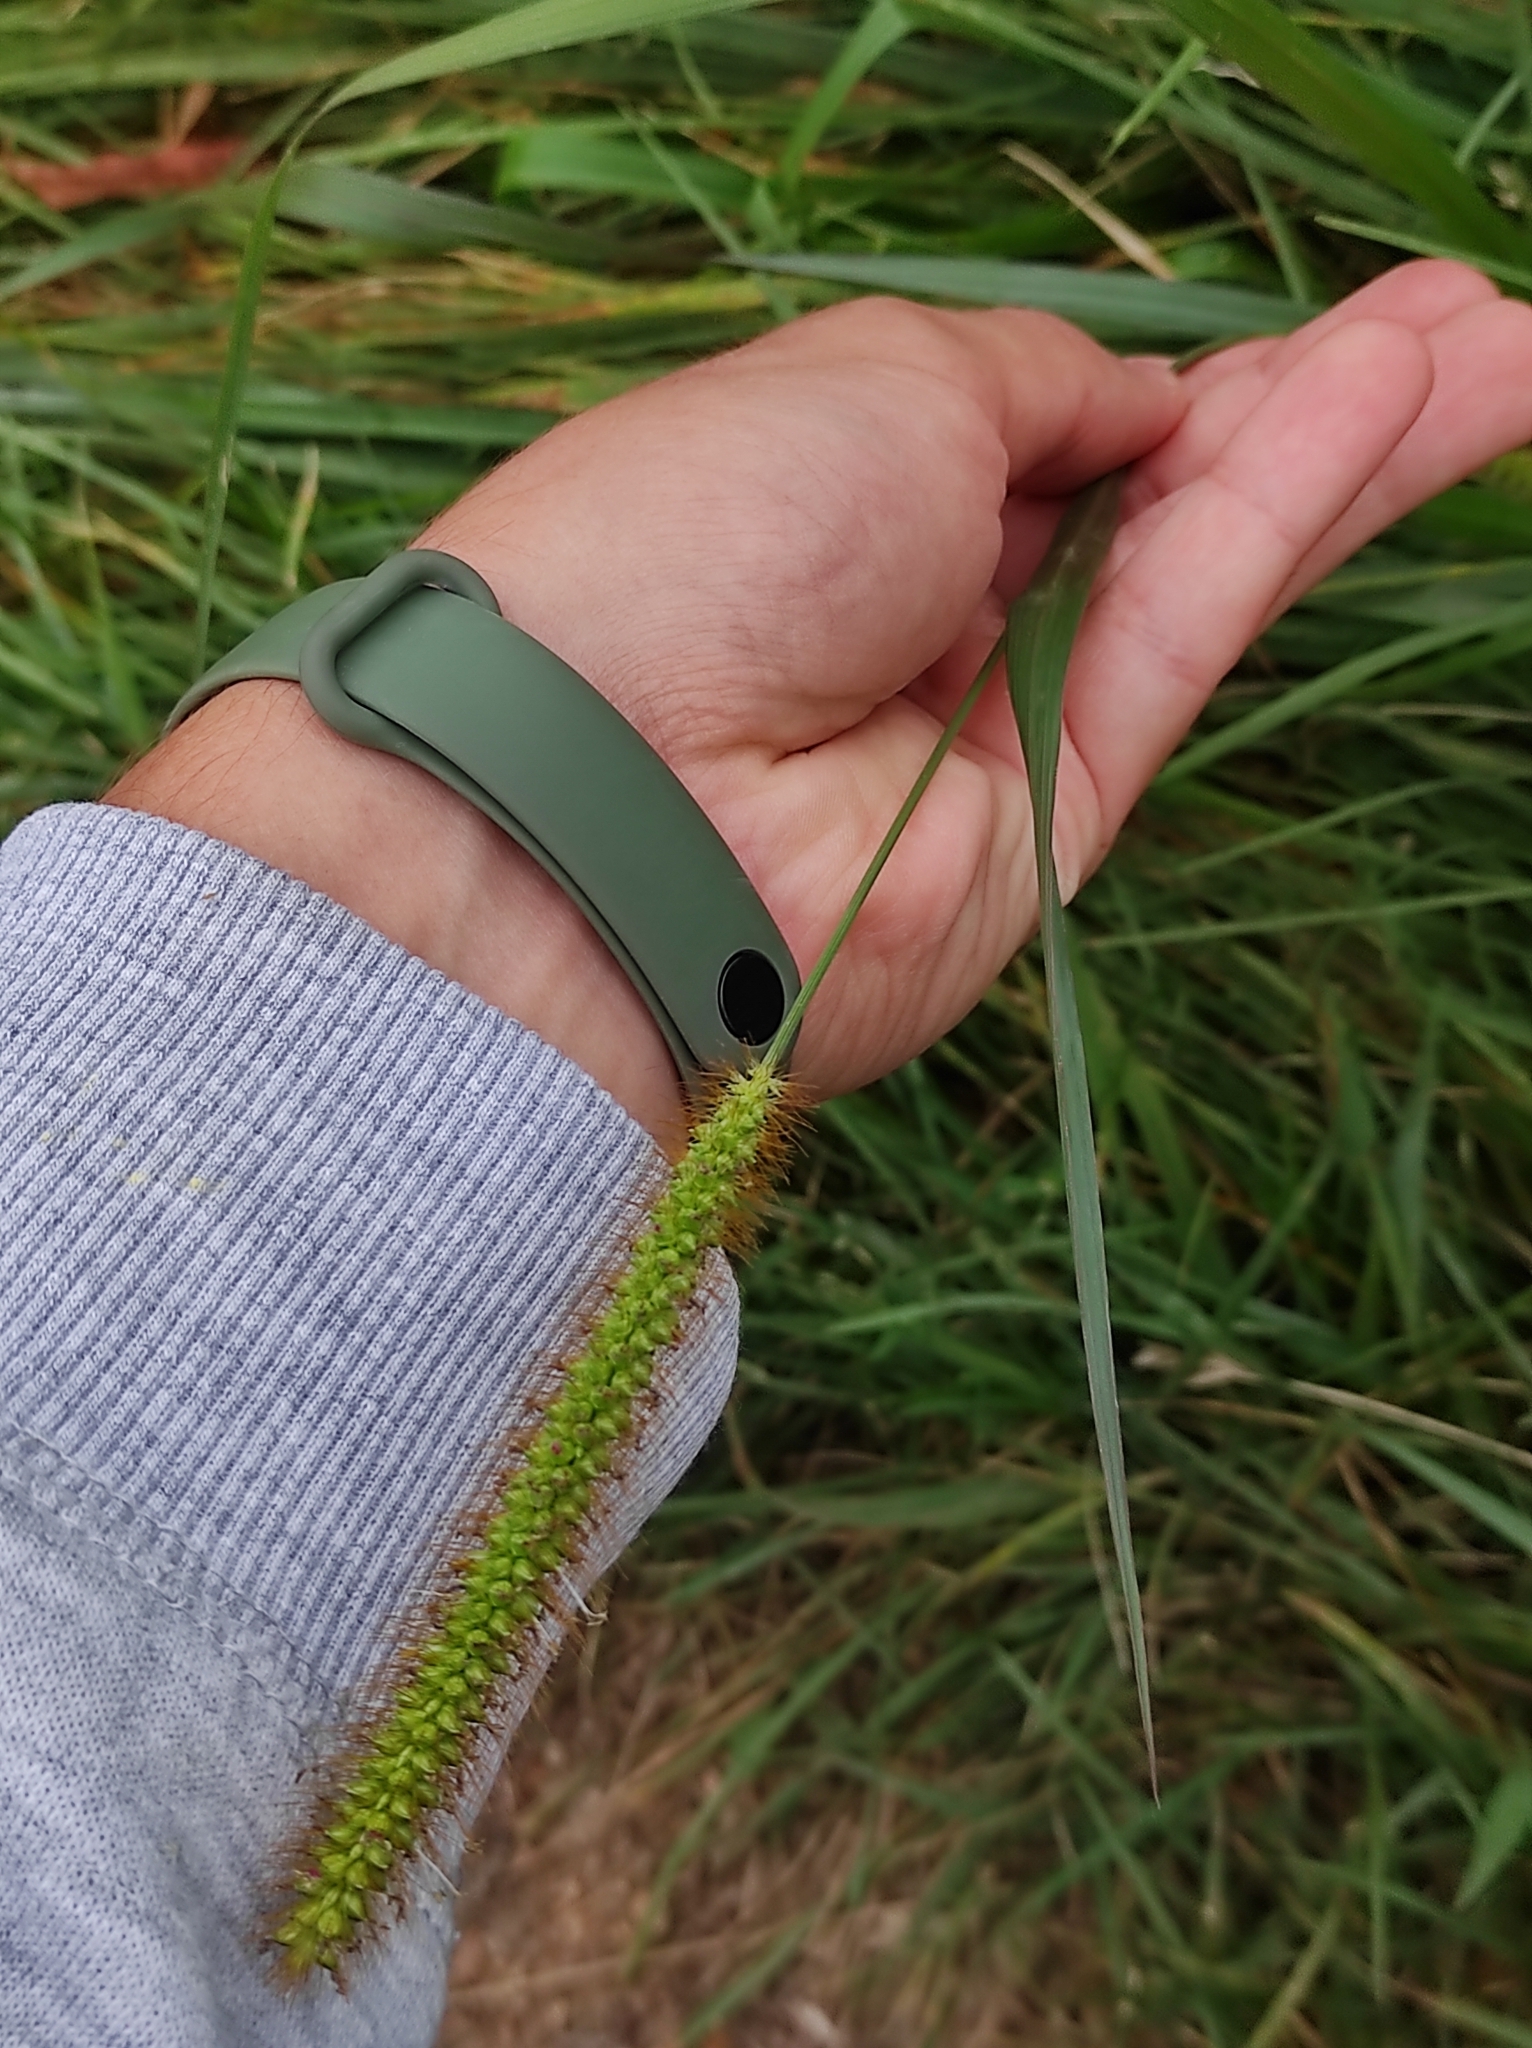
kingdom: Plantae
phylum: Tracheophyta
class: Liliopsida
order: Poales
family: Poaceae
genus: Setaria
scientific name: Setaria pumila
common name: Yellow bristle-grass
